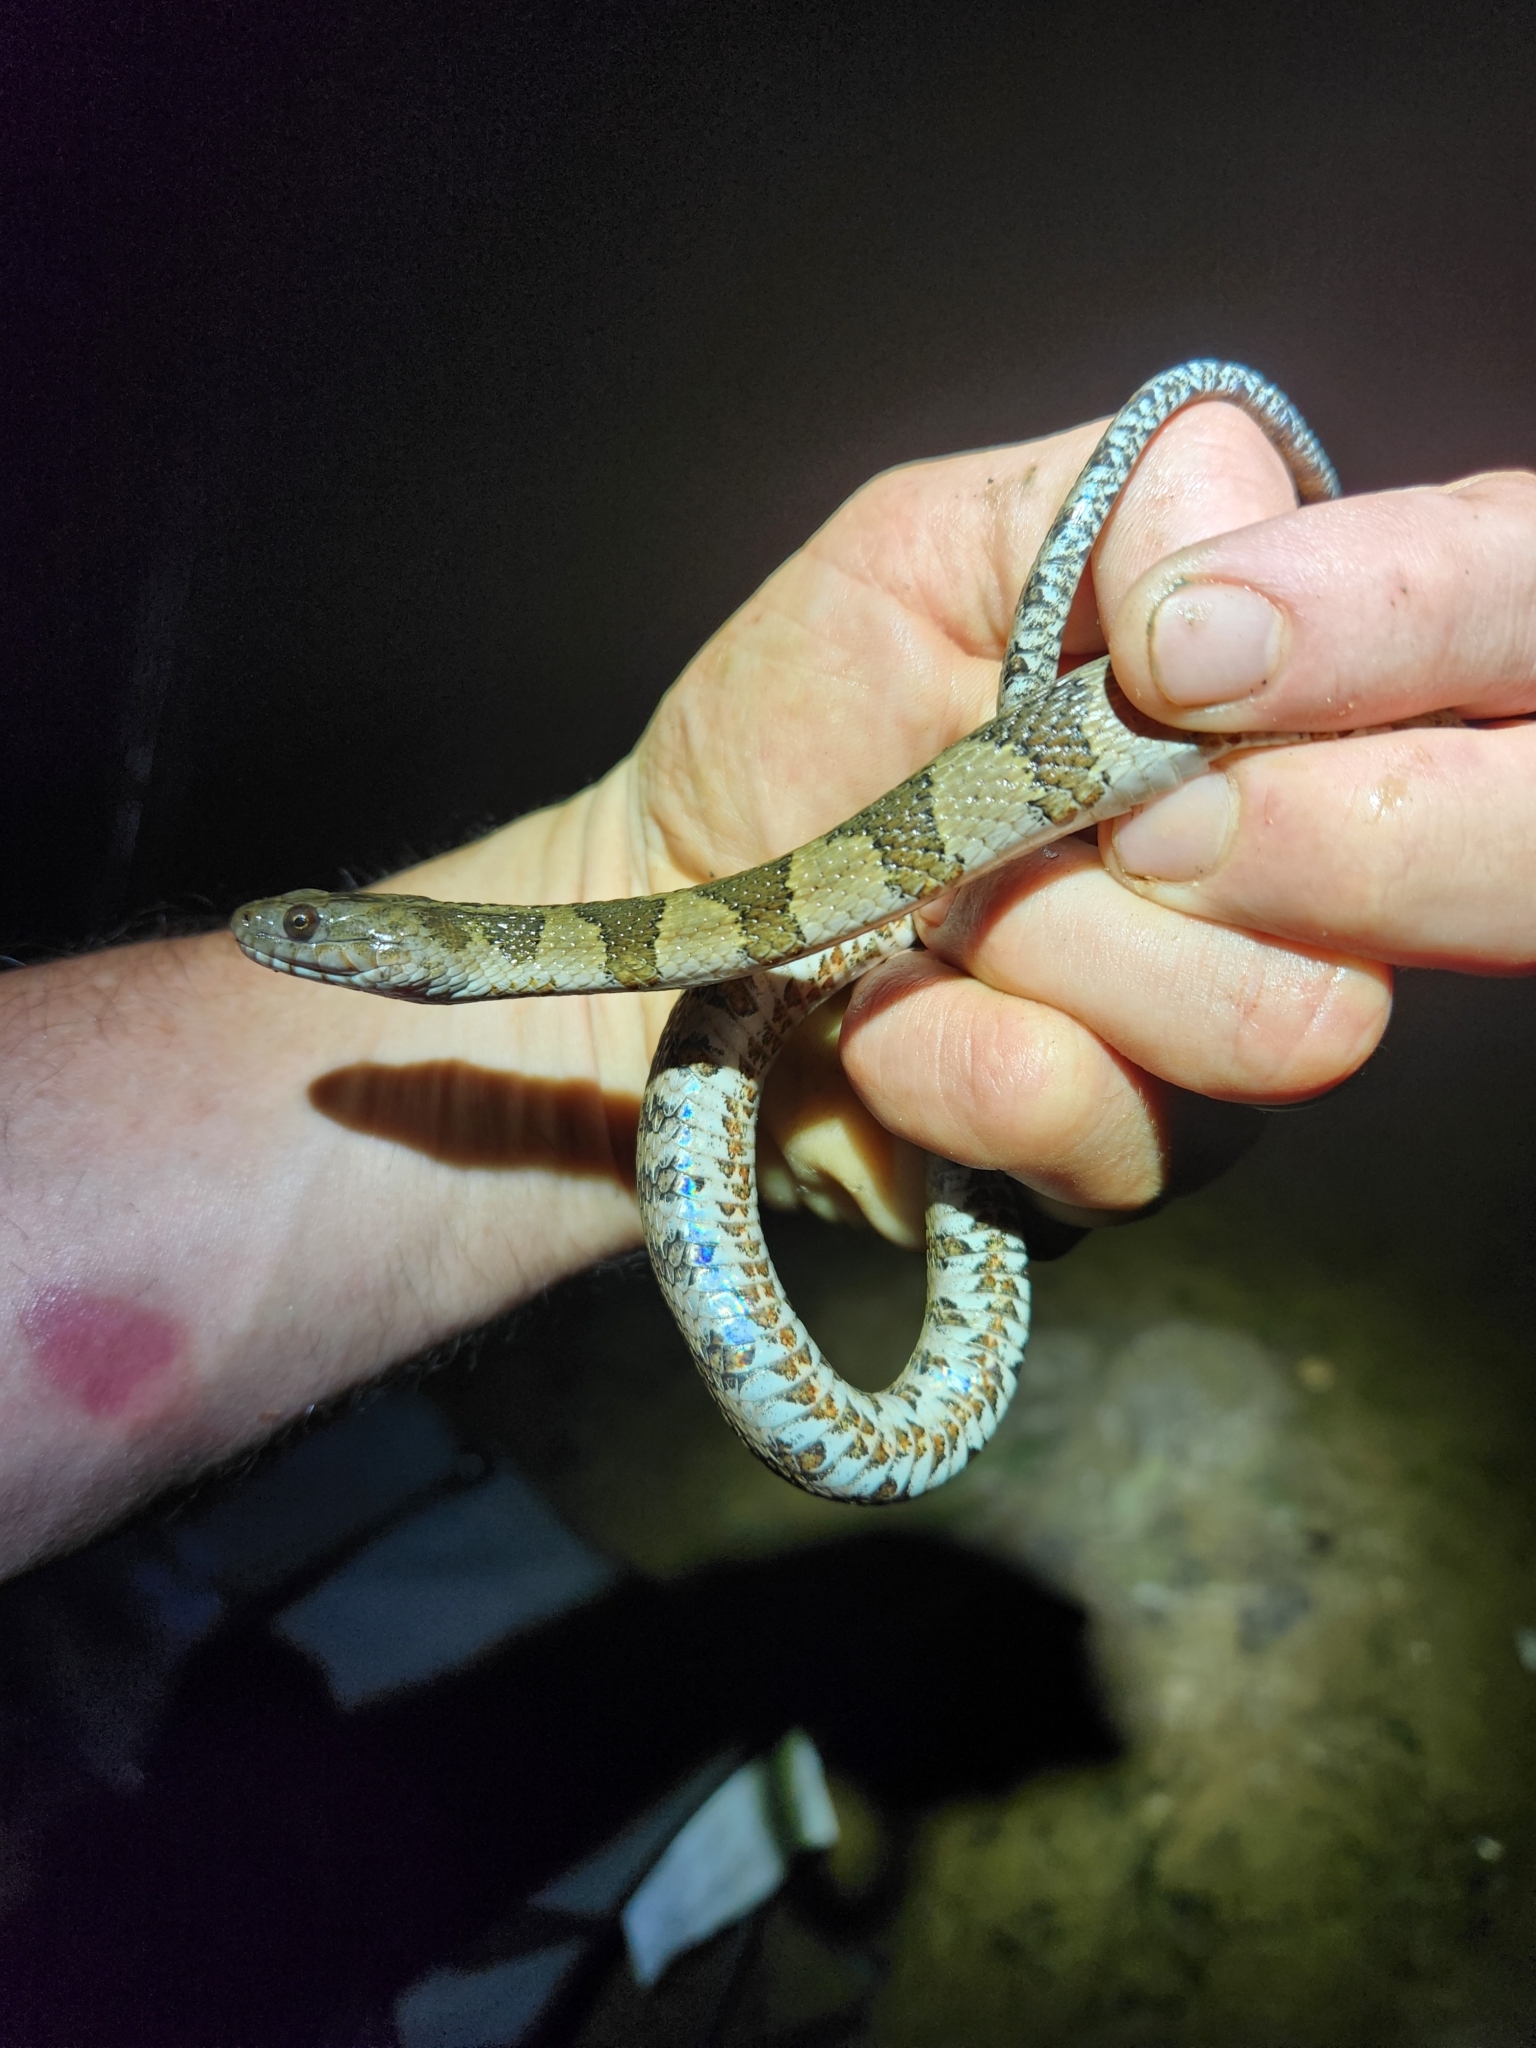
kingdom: Animalia
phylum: Chordata
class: Squamata
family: Colubridae
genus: Nerodia
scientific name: Nerodia sipedon
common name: Northern water snake
